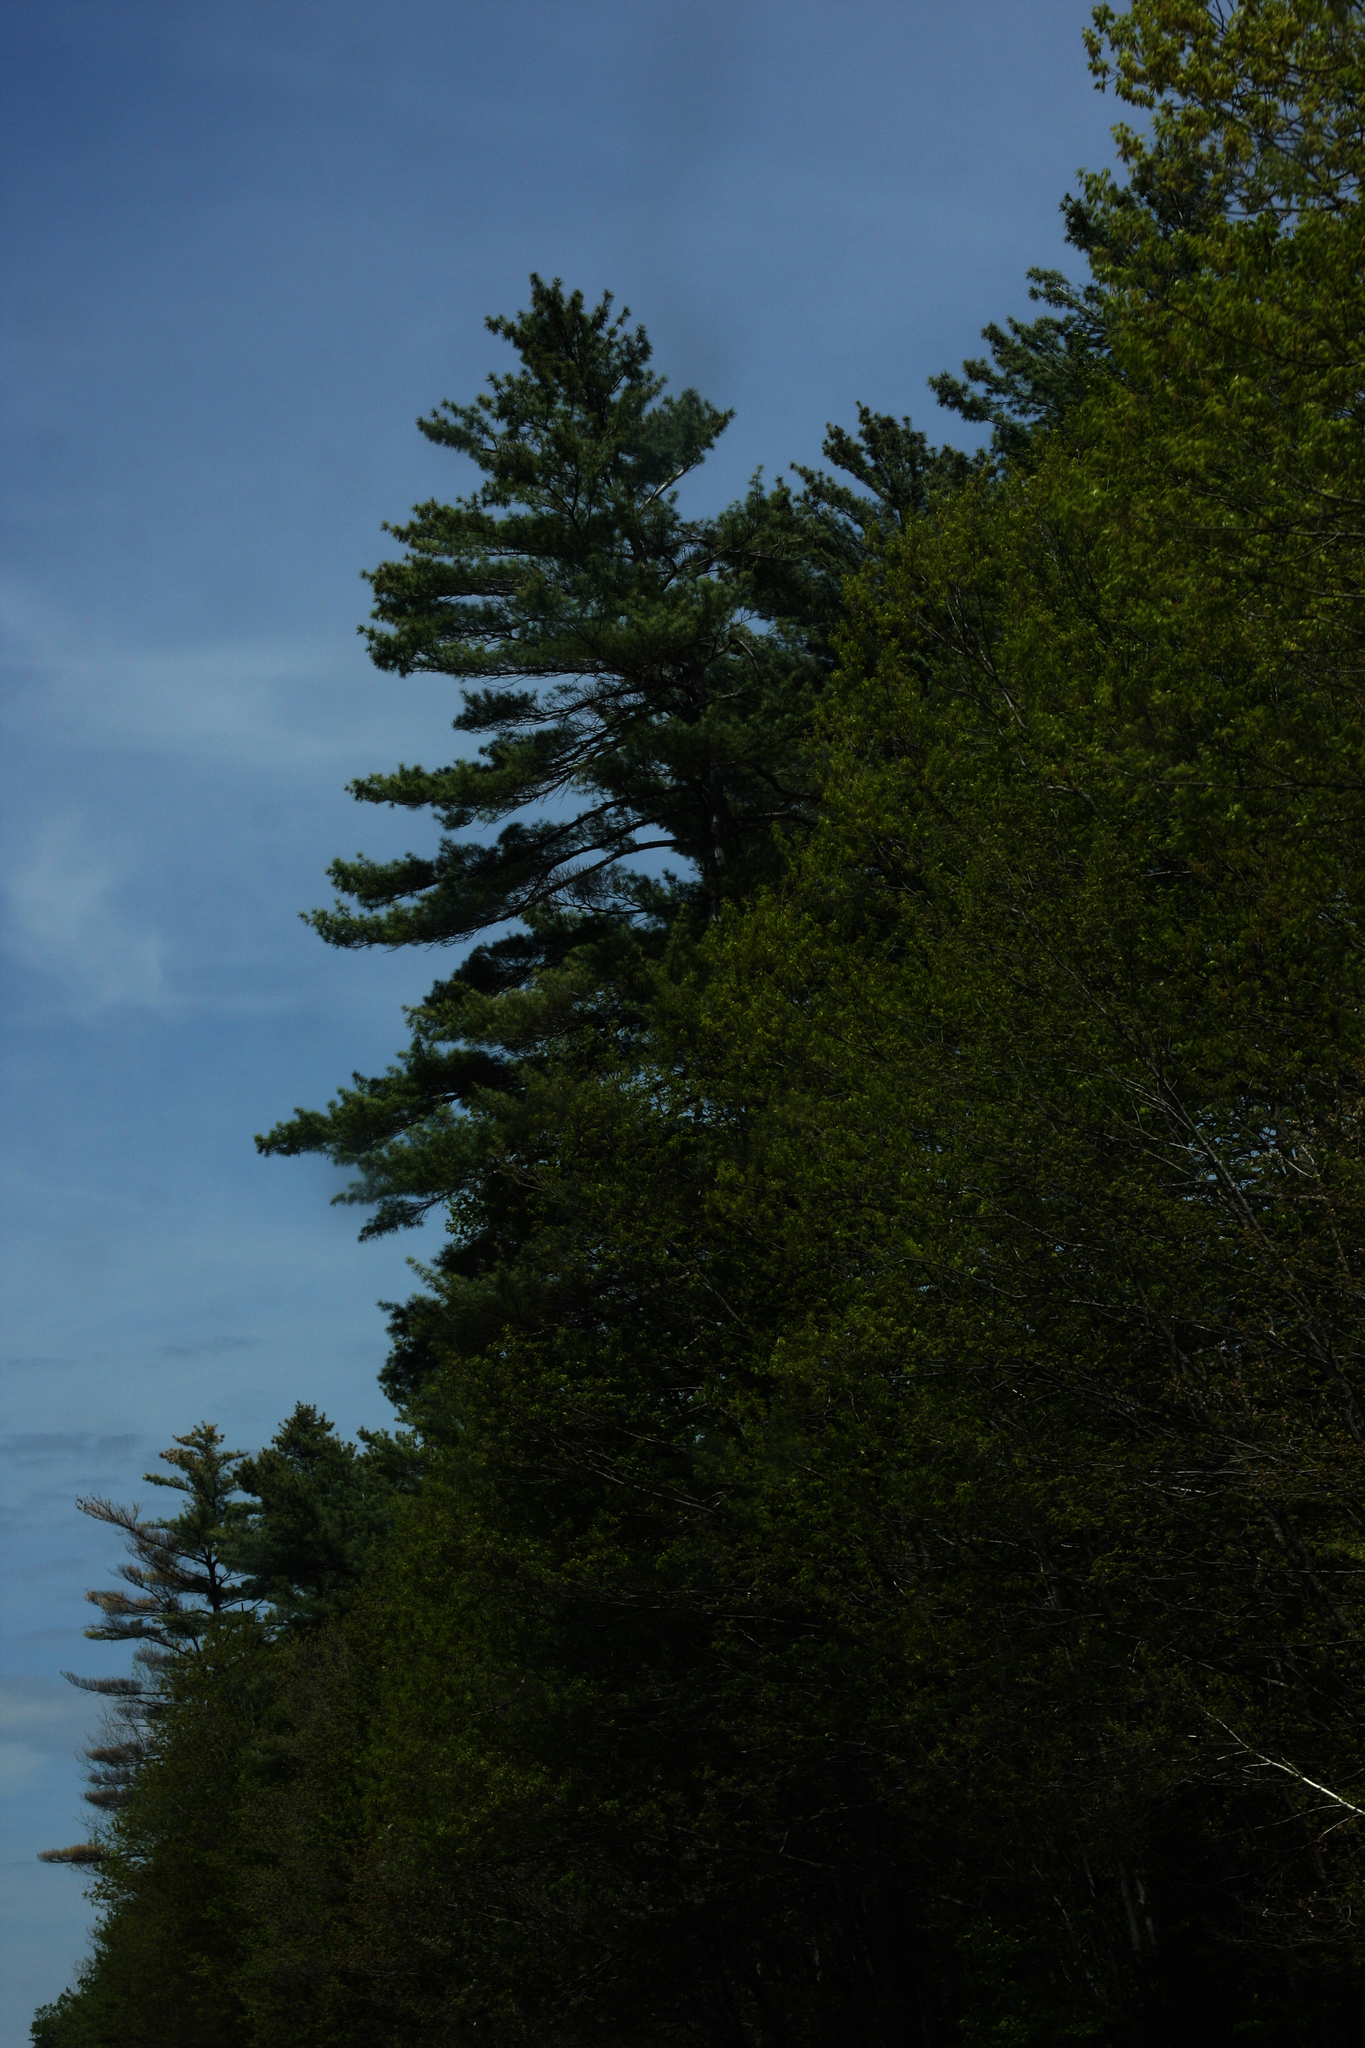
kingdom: Plantae
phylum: Tracheophyta
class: Pinopsida
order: Pinales
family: Pinaceae
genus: Pinus
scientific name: Pinus strobus
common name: Weymouth pine
